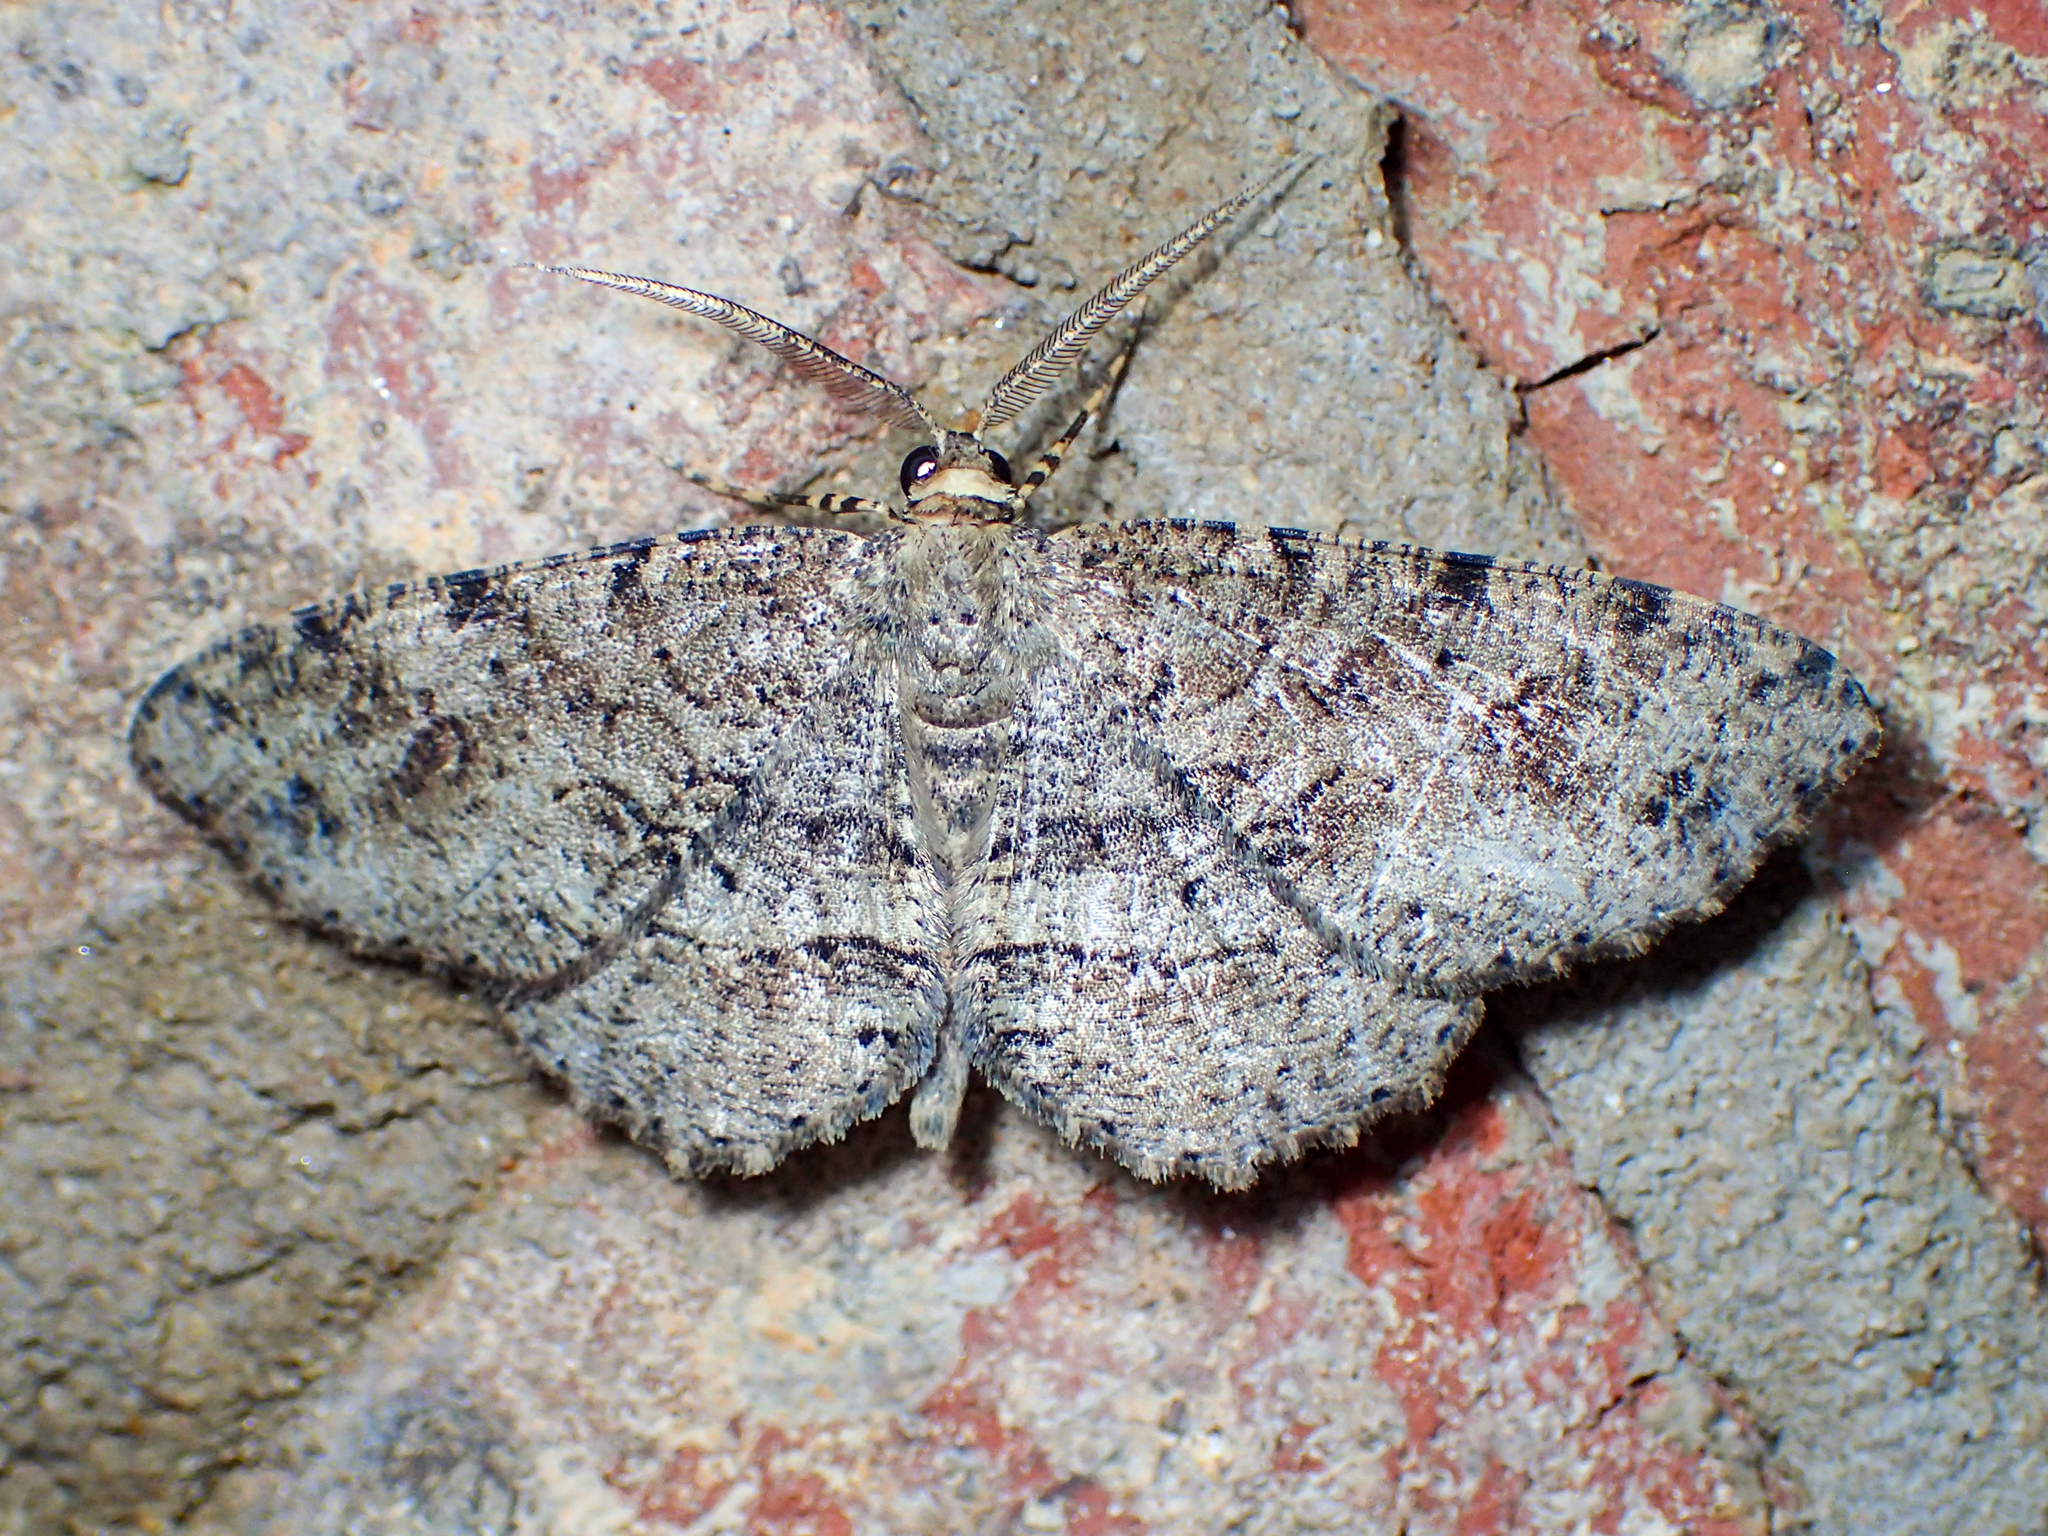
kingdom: Animalia
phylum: Arthropoda
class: Insecta
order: Lepidoptera
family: Geometridae
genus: Melanolophia
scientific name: Melanolophia canadaria
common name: Canadian melanolophia
